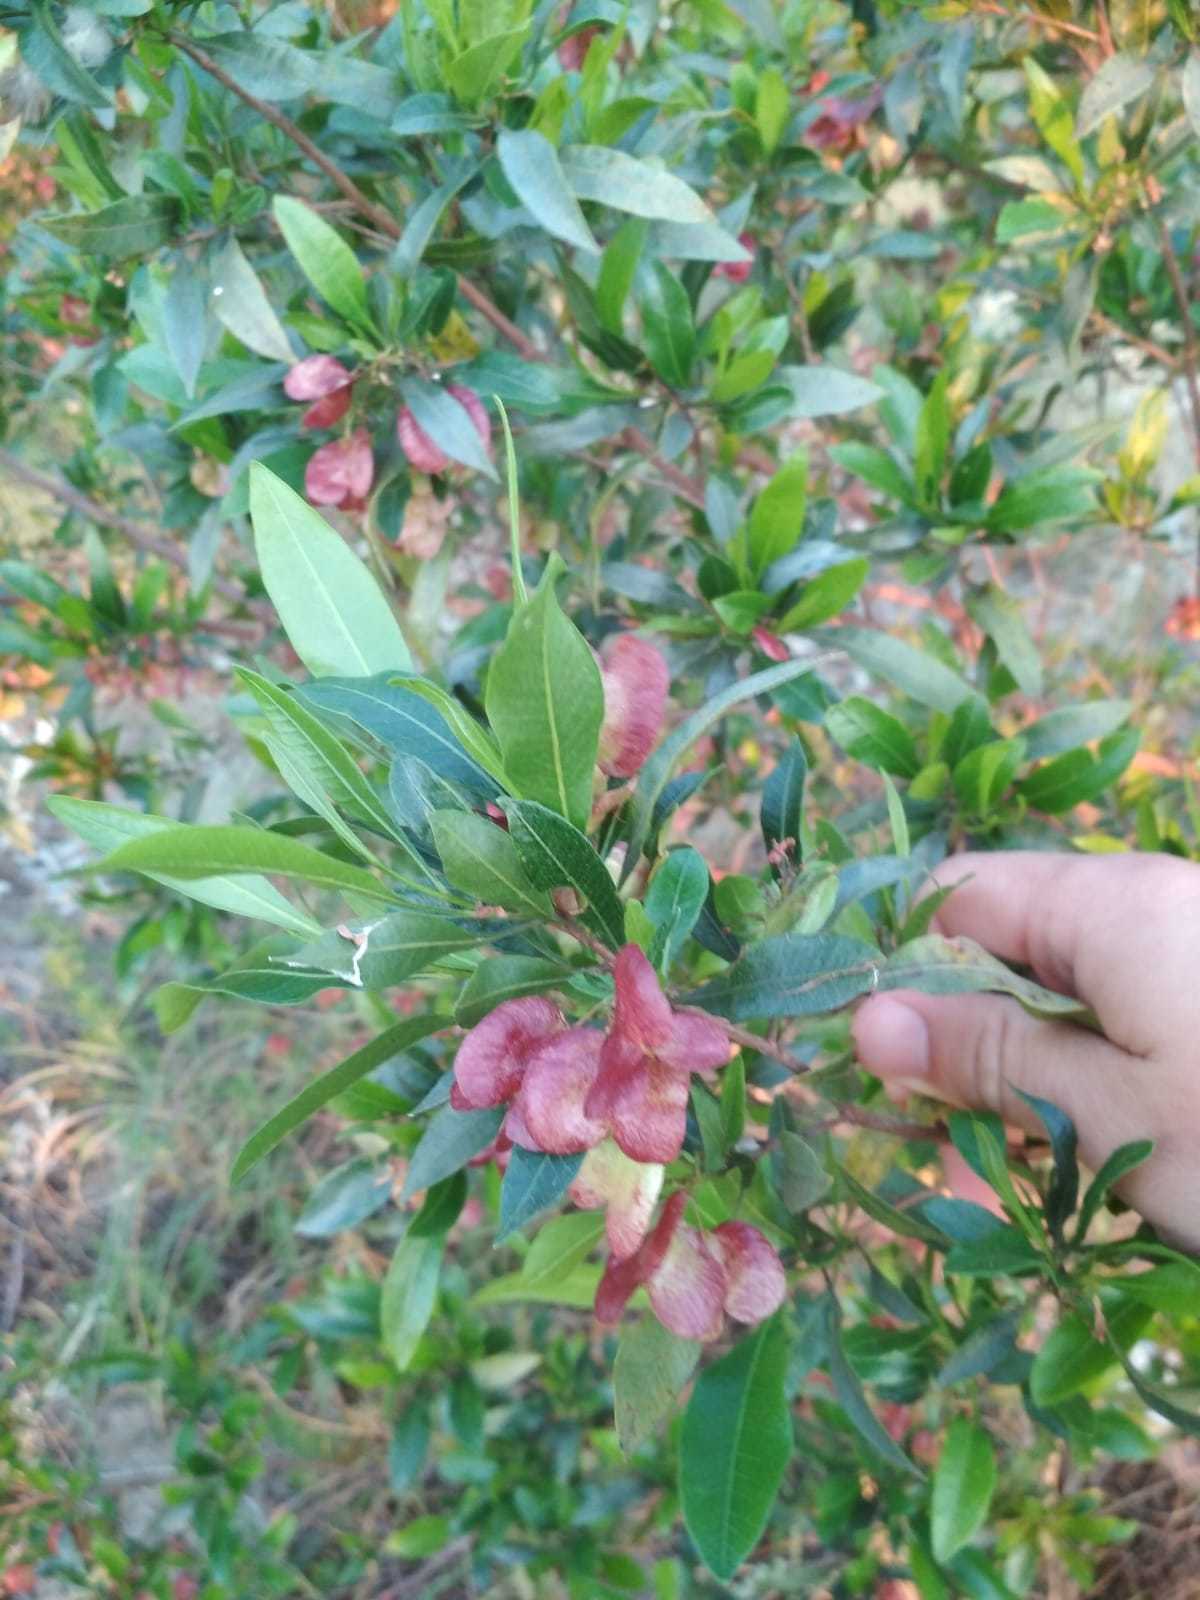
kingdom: Plantae
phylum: Tracheophyta
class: Magnoliopsida
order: Sapindales
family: Sapindaceae
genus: Dodonaea
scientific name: Dodonaea viscosa
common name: Hopbush
